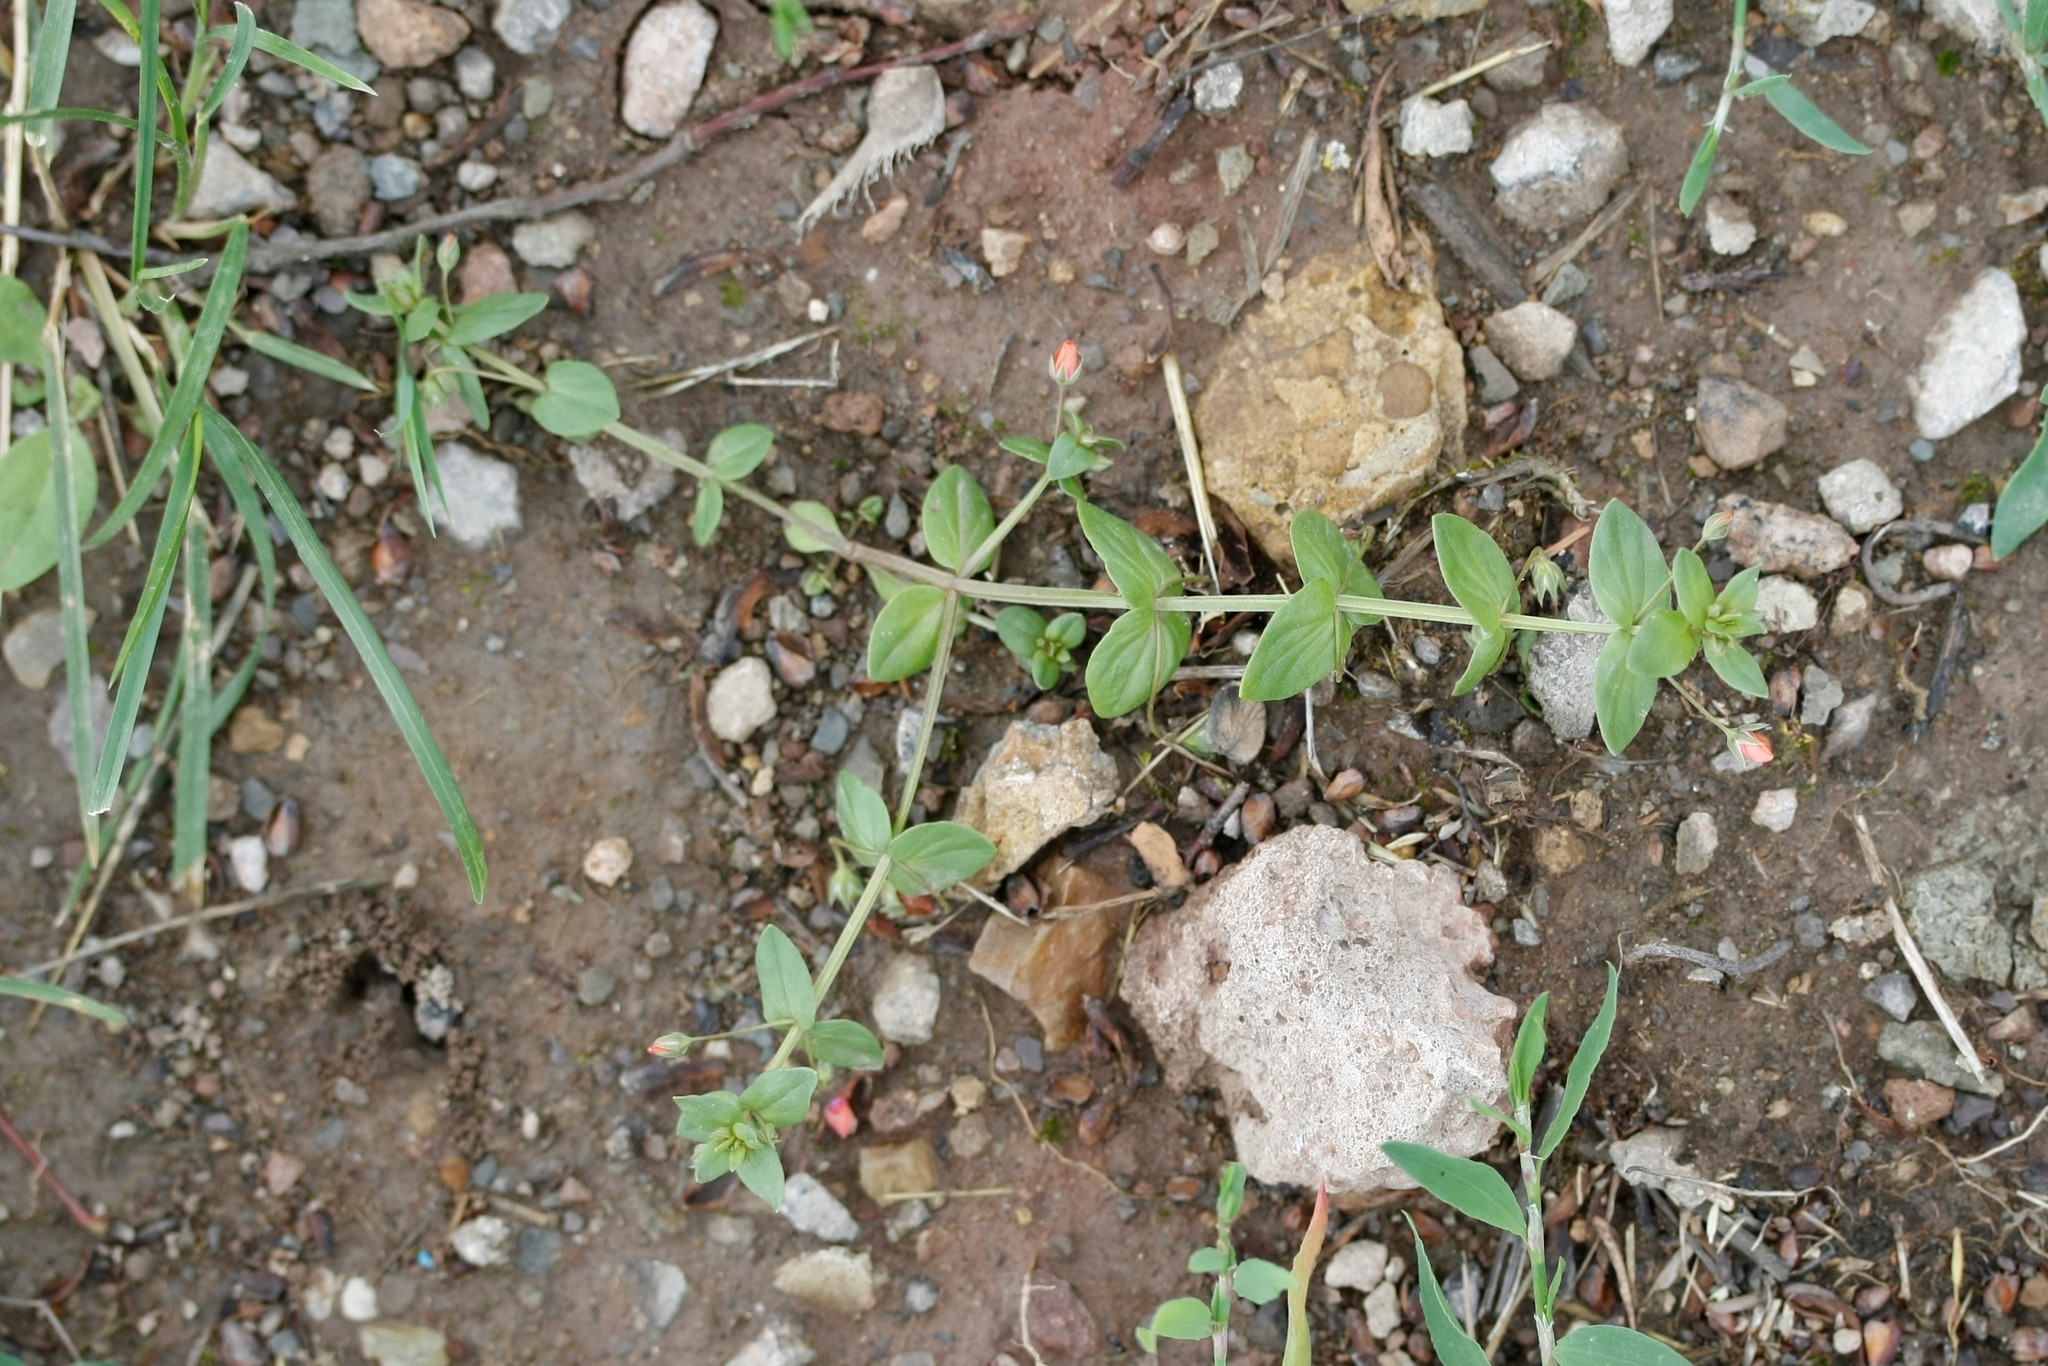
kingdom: Plantae
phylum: Tracheophyta
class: Magnoliopsida
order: Ericales
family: Primulaceae
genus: Lysimachia
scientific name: Lysimachia arvensis
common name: Scarlet pimpernel
